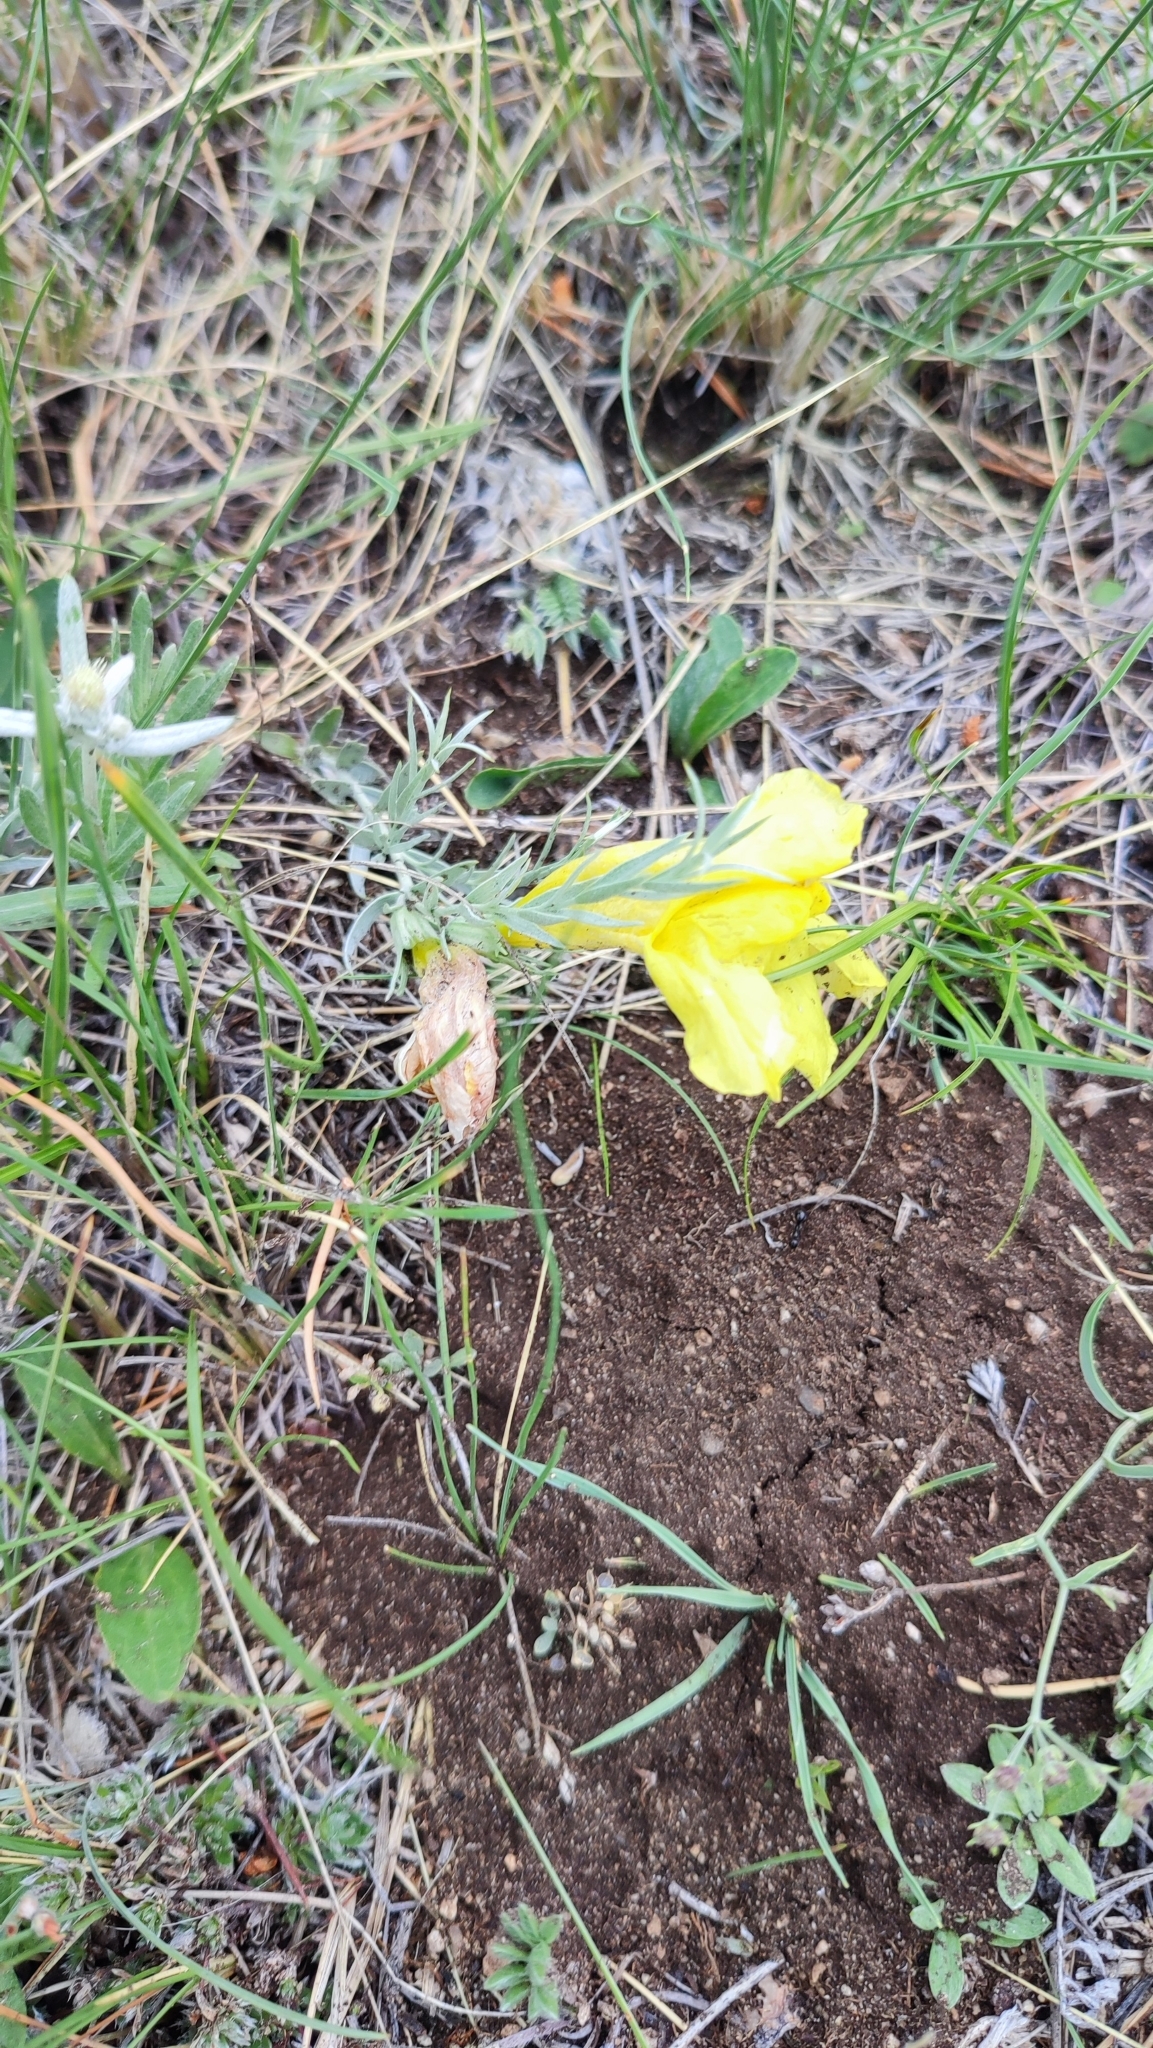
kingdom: Plantae
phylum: Tracheophyta
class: Magnoliopsida
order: Lamiales
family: Orobanchaceae
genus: Cymbaria
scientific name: Cymbaria daurica
